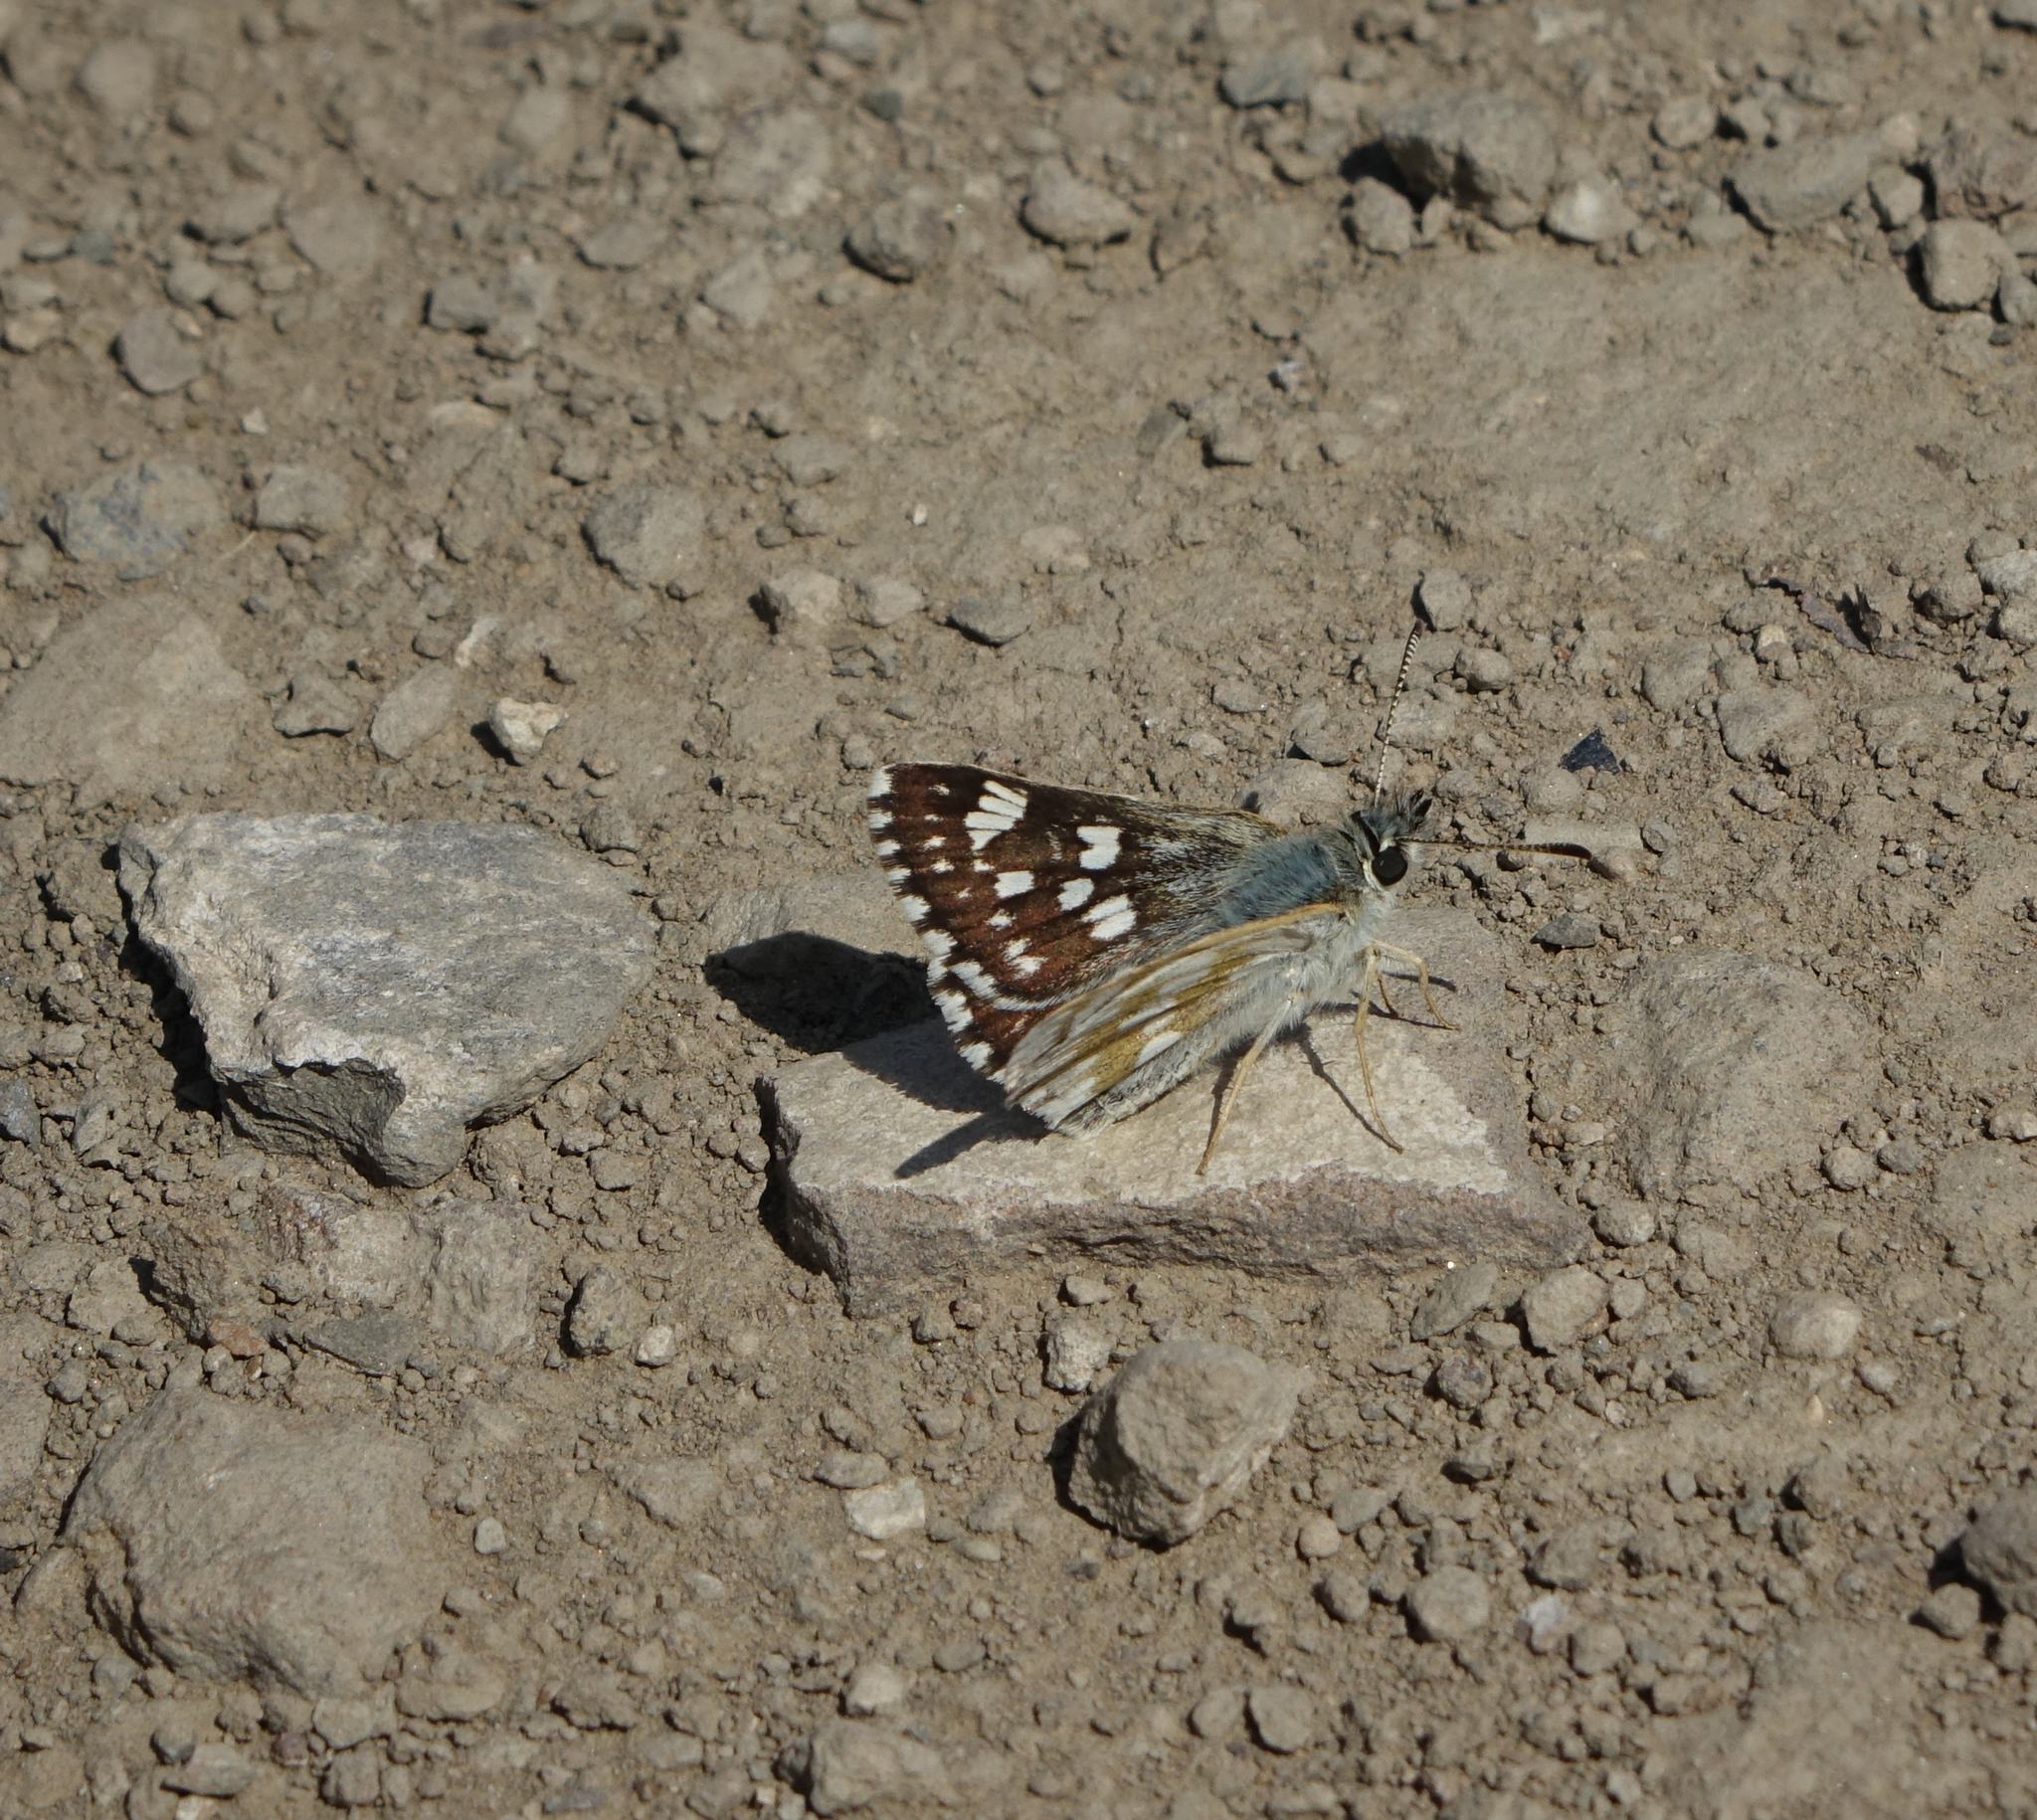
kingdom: Animalia
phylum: Arthropoda
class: Insecta
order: Lepidoptera
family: Hesperiidae
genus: Syrichtus
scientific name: Syrichtus cribrellum
